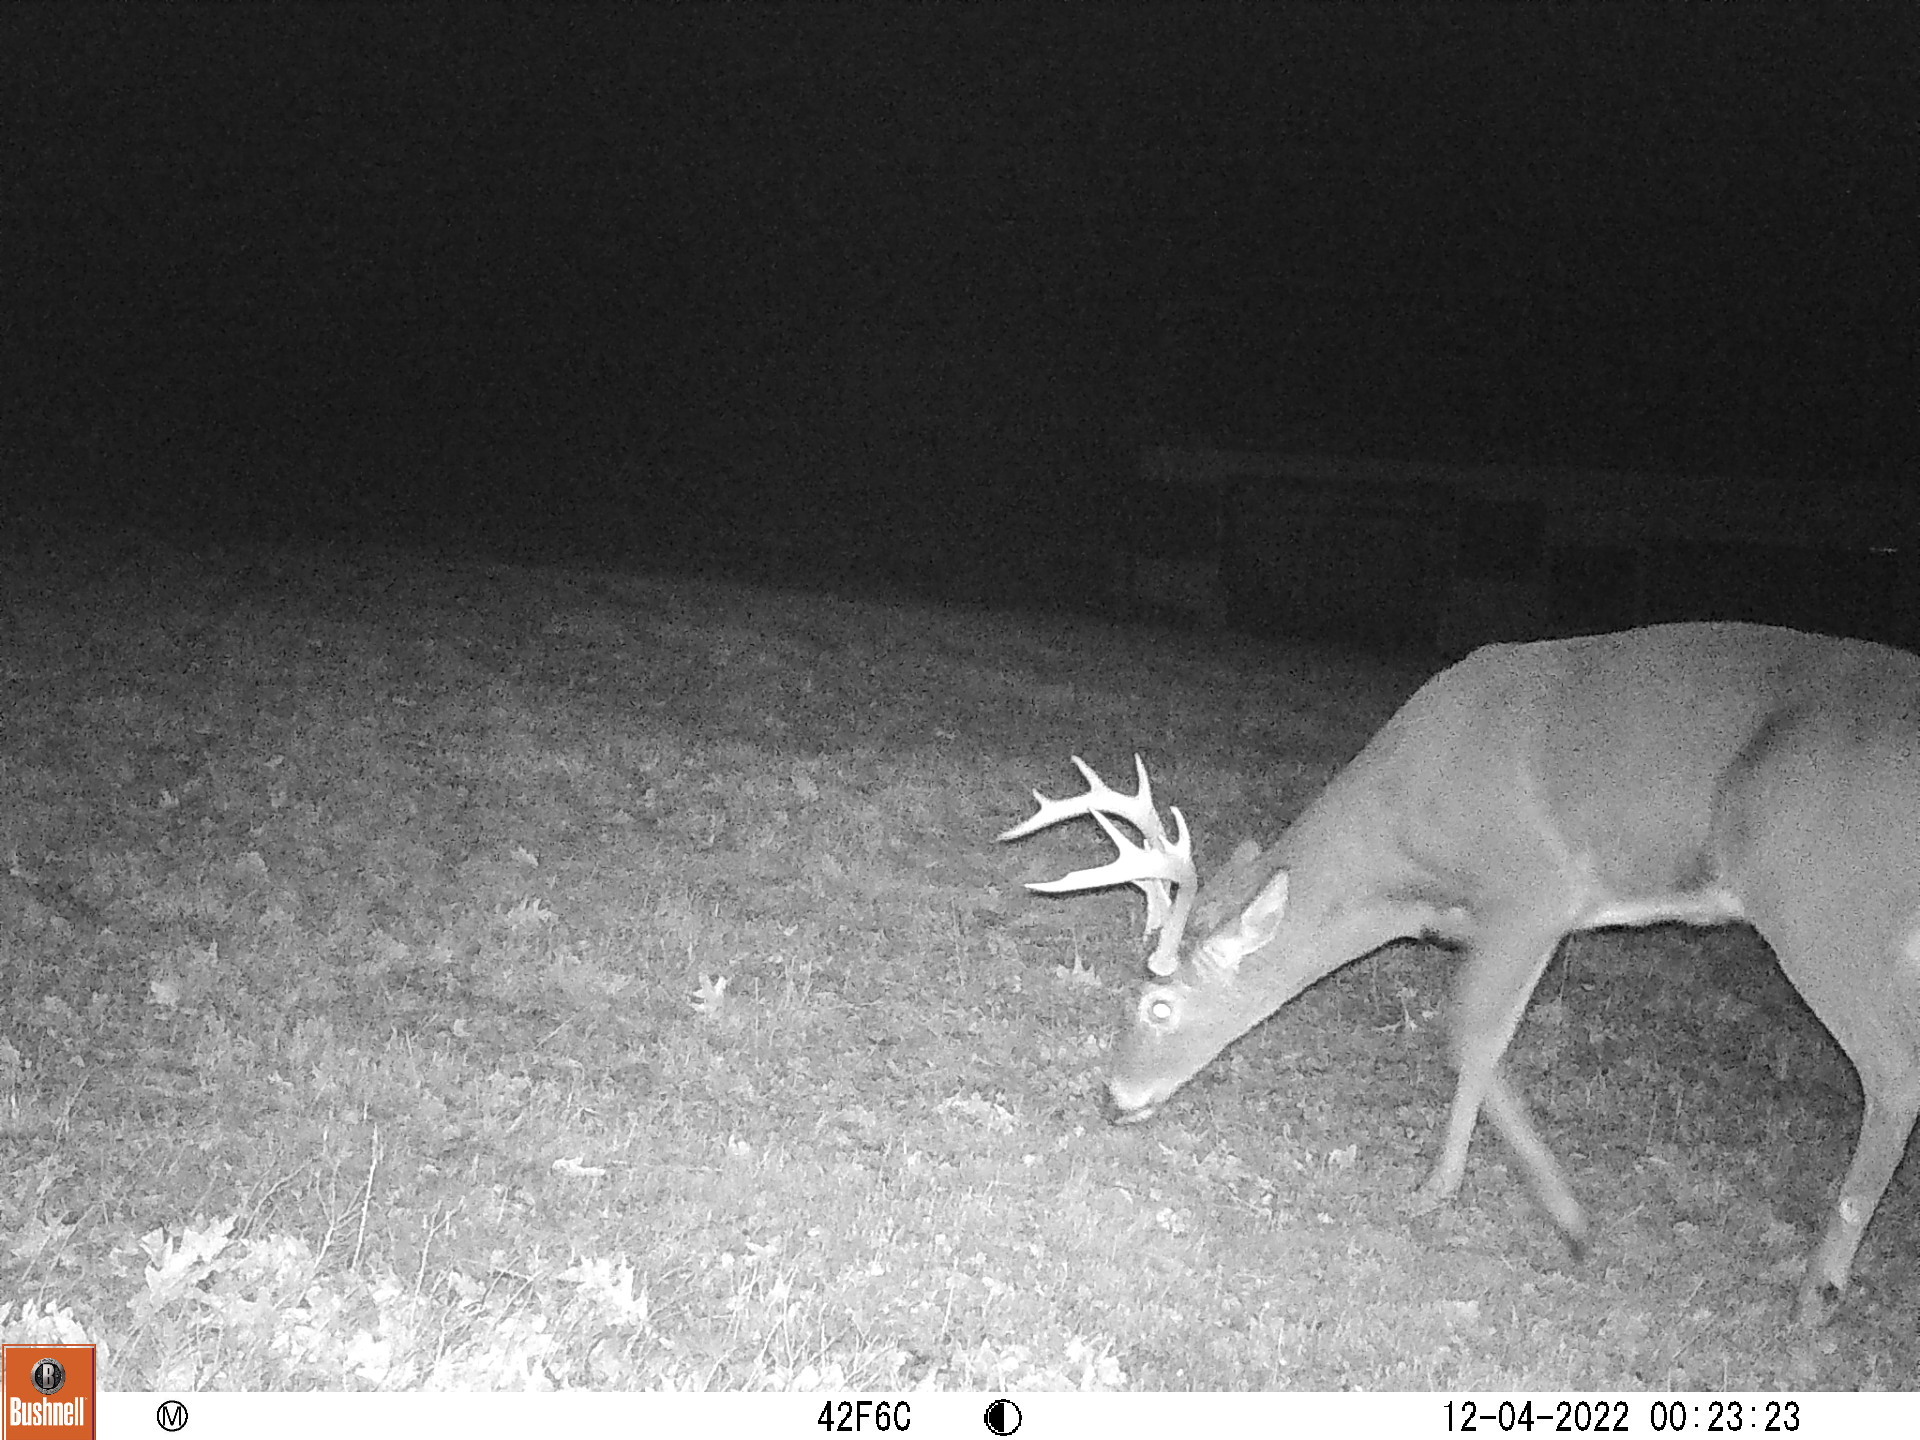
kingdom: Animalia
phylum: Chordata
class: Mammalia
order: Artiodactyla
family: Cervidae
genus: Odocoileus
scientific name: Odocoileus virginianus
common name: White-tailed deer
